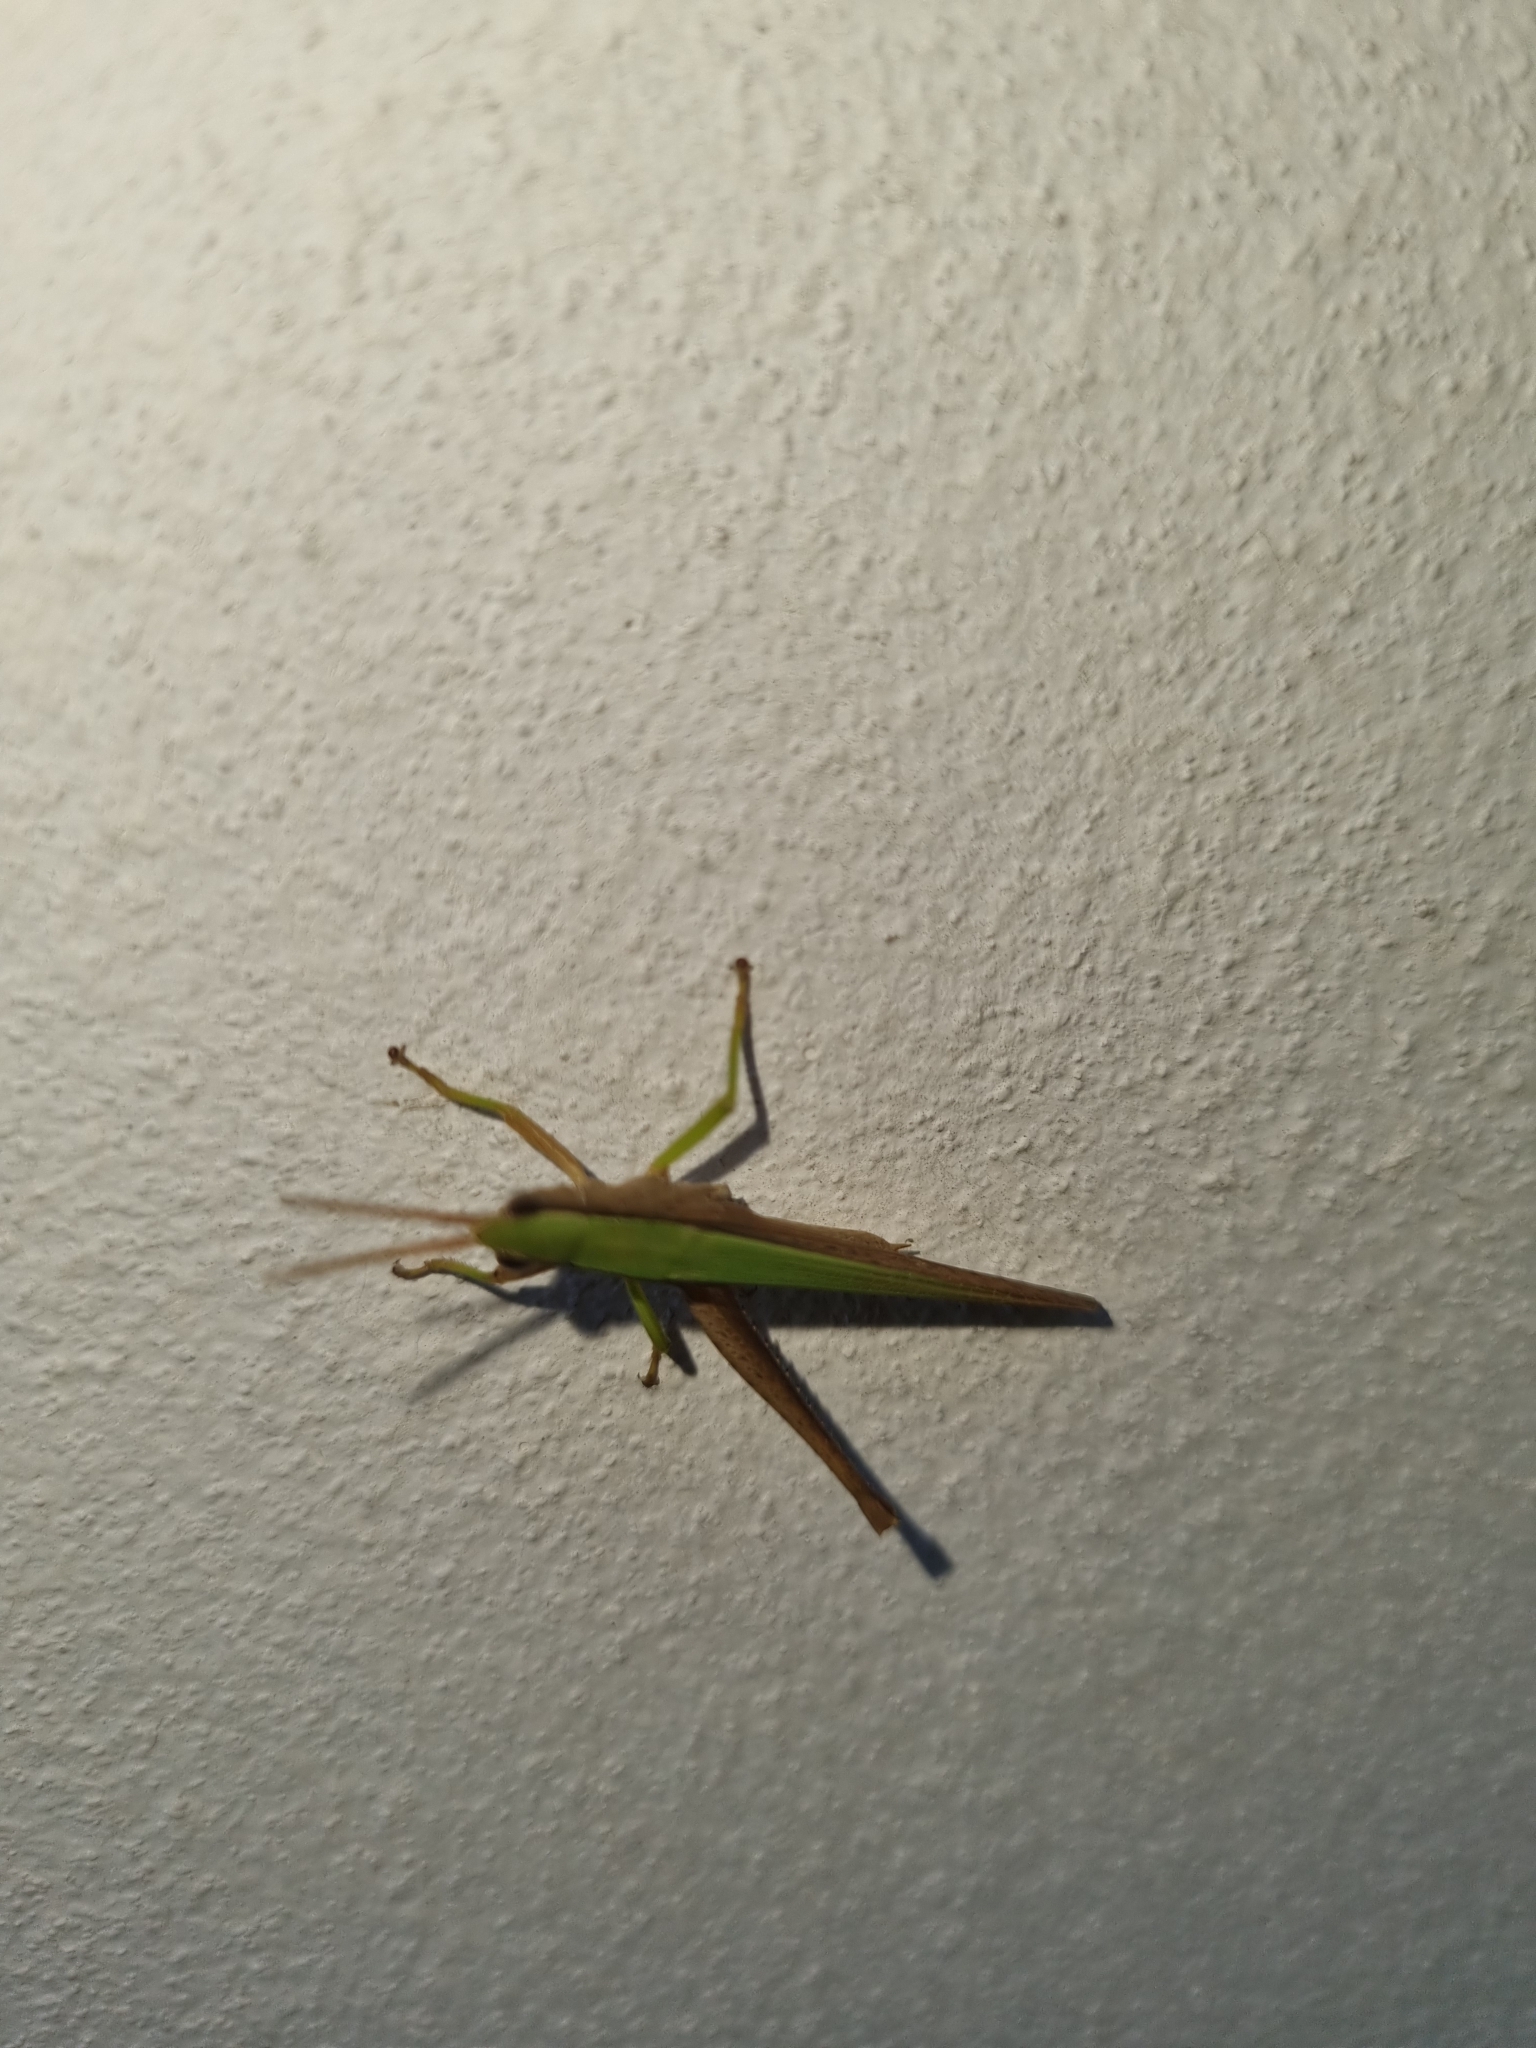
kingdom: Animalia
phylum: Arthropoda
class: Insecta
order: Orthoptera
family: Acrididae
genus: Metaleptea
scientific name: Metaleptea adspersa
